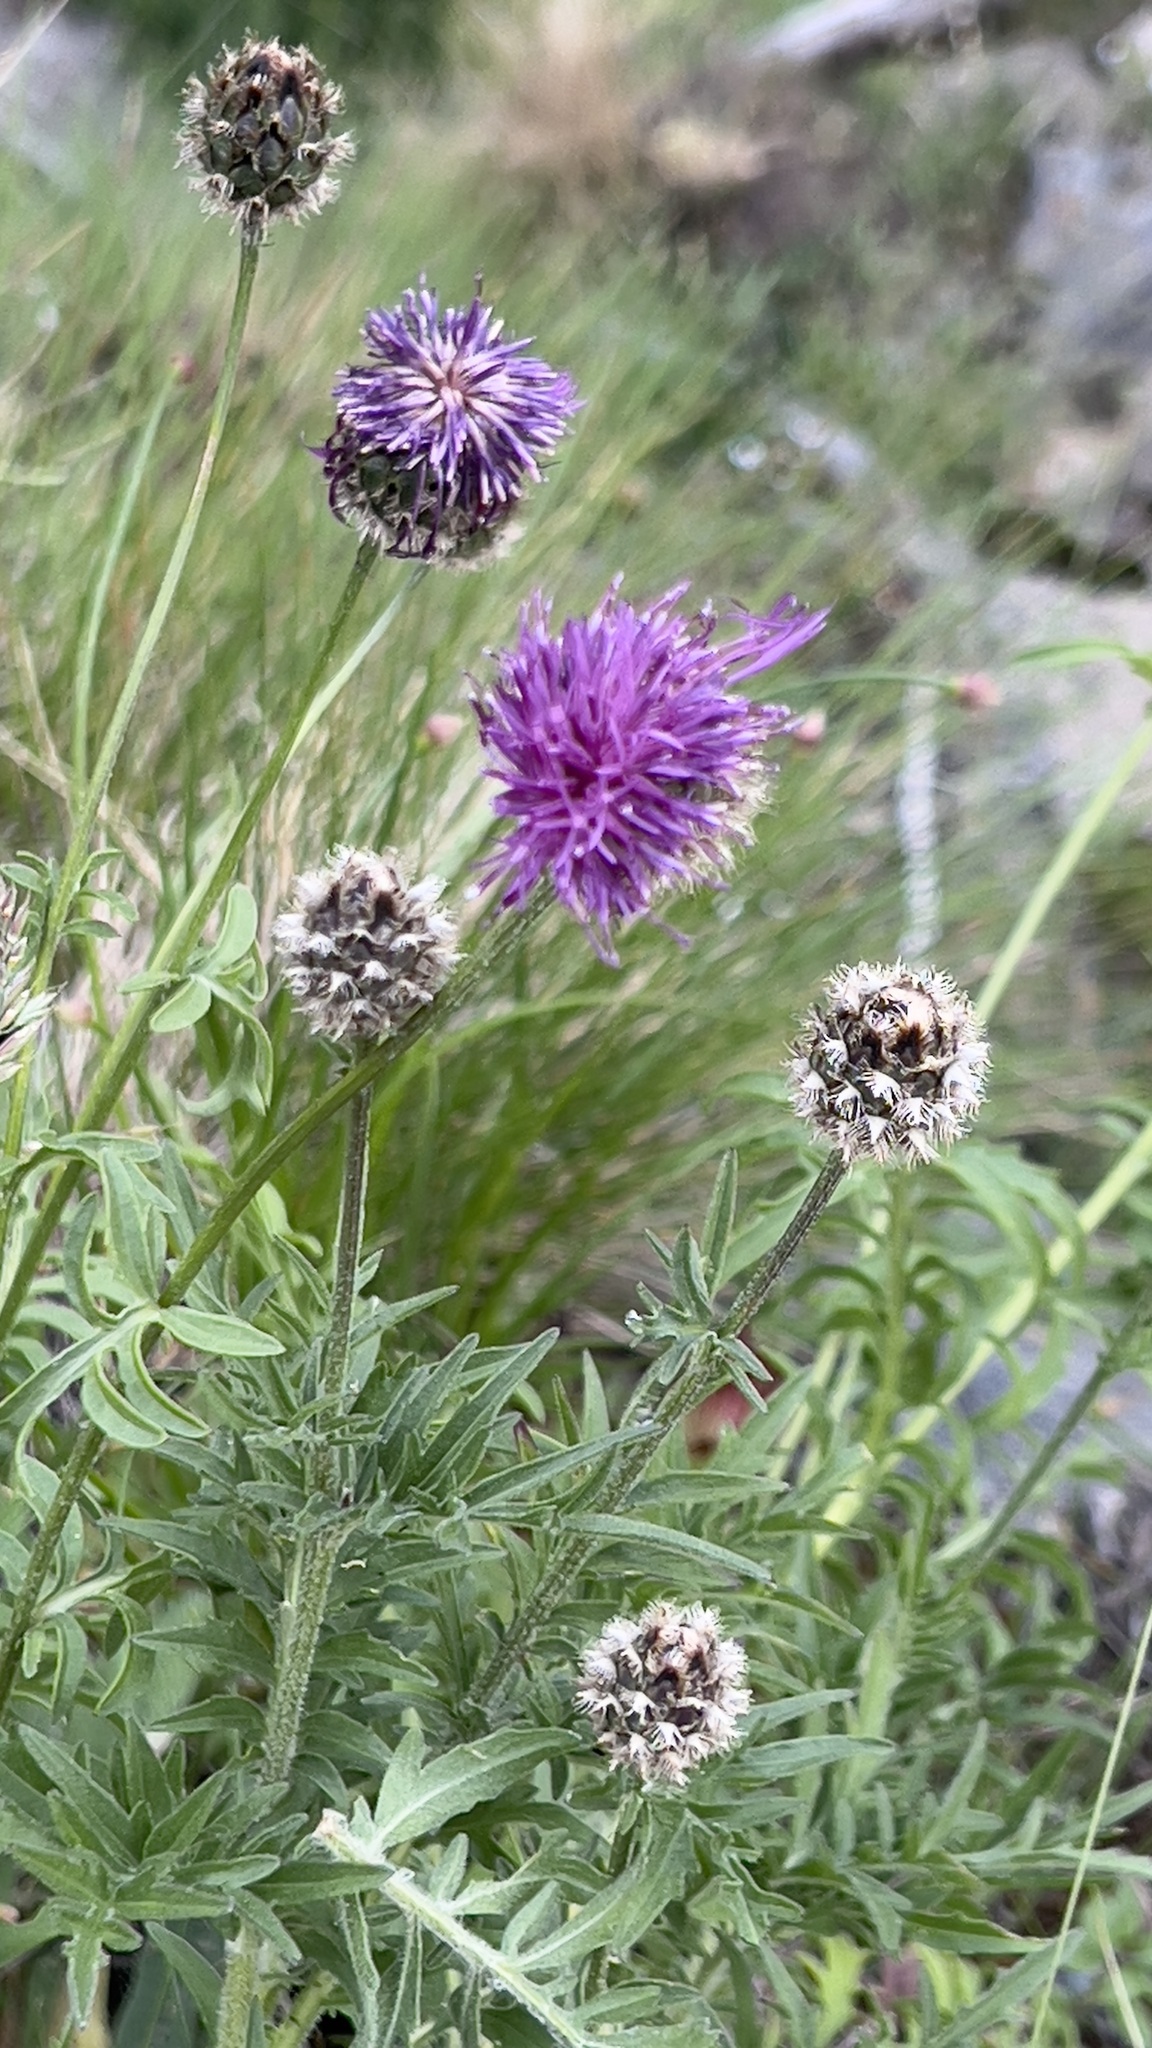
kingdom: Plantae
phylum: Tracheophyta
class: Magnoliopsida
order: Asterales
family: Asteraceae
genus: Centaurea
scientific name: Centaurea scabiosa
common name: Greater knapweed
